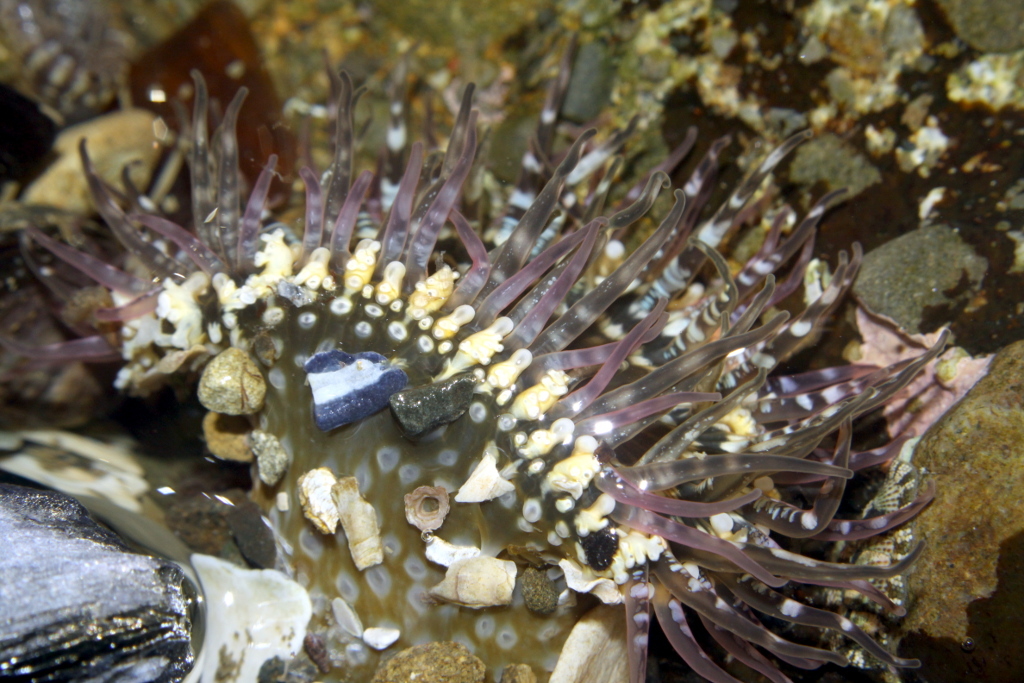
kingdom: Animalia
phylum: Cnidaria
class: Anthozoa
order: Actiniaria
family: Actiniidae
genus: Oulactis
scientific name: Oulactis muscosa
